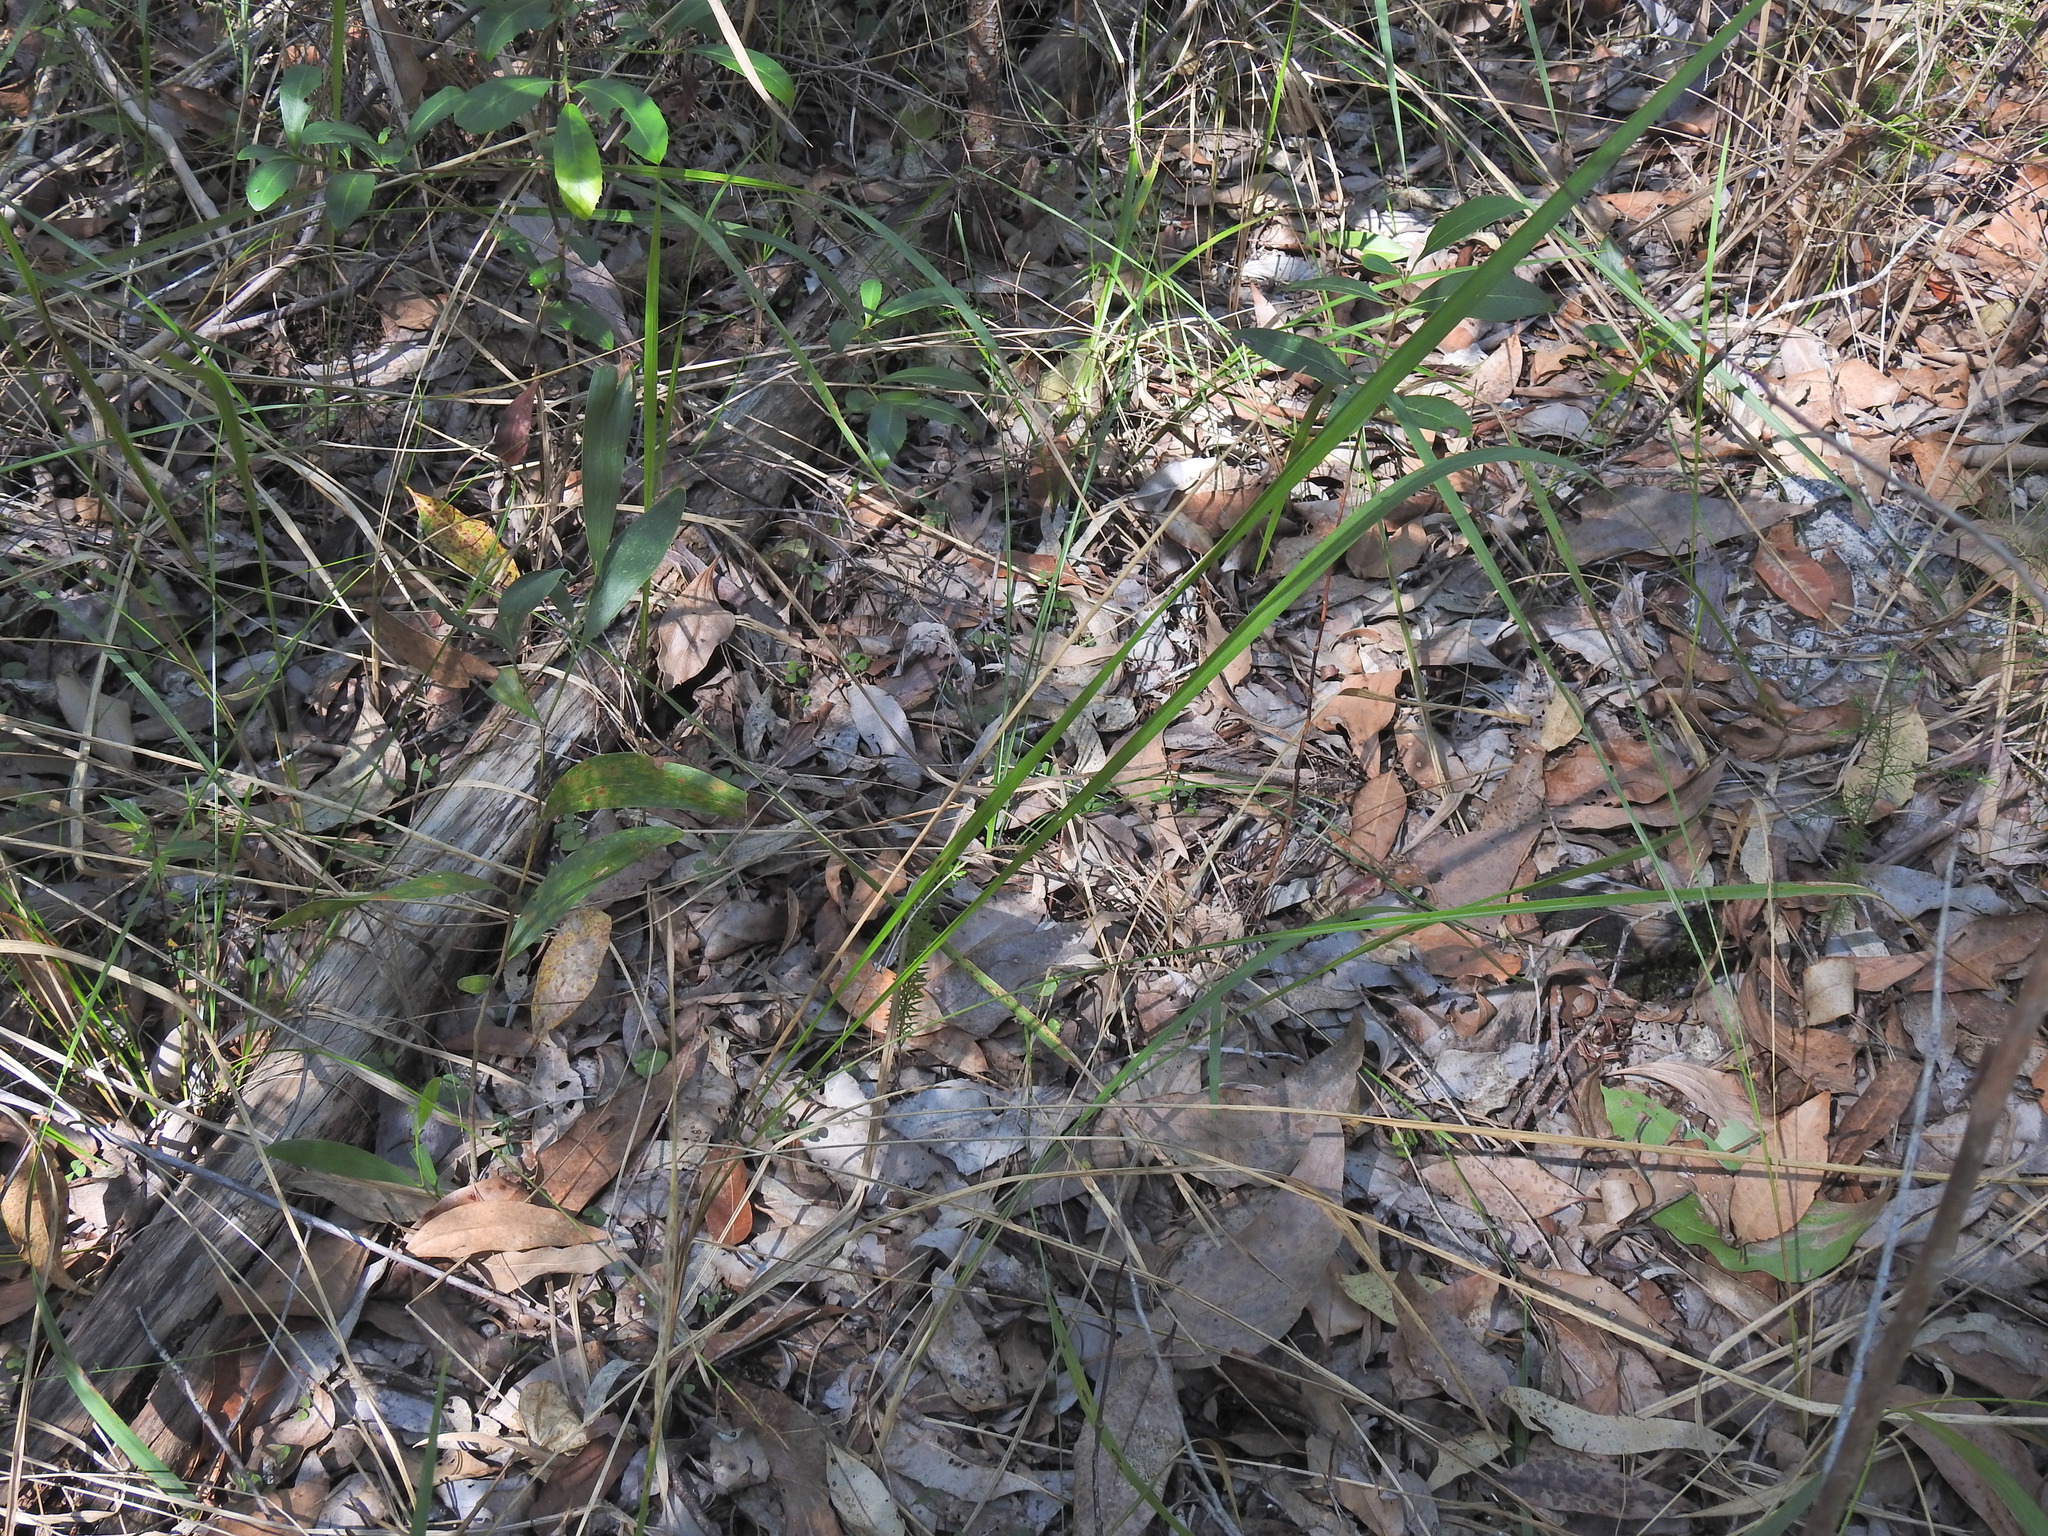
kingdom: Plantae
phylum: Tracheophyta
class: Liliopsida
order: Poales
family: Poaceae
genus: Imperata
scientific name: Imperata cylindrica
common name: Cogongrass
